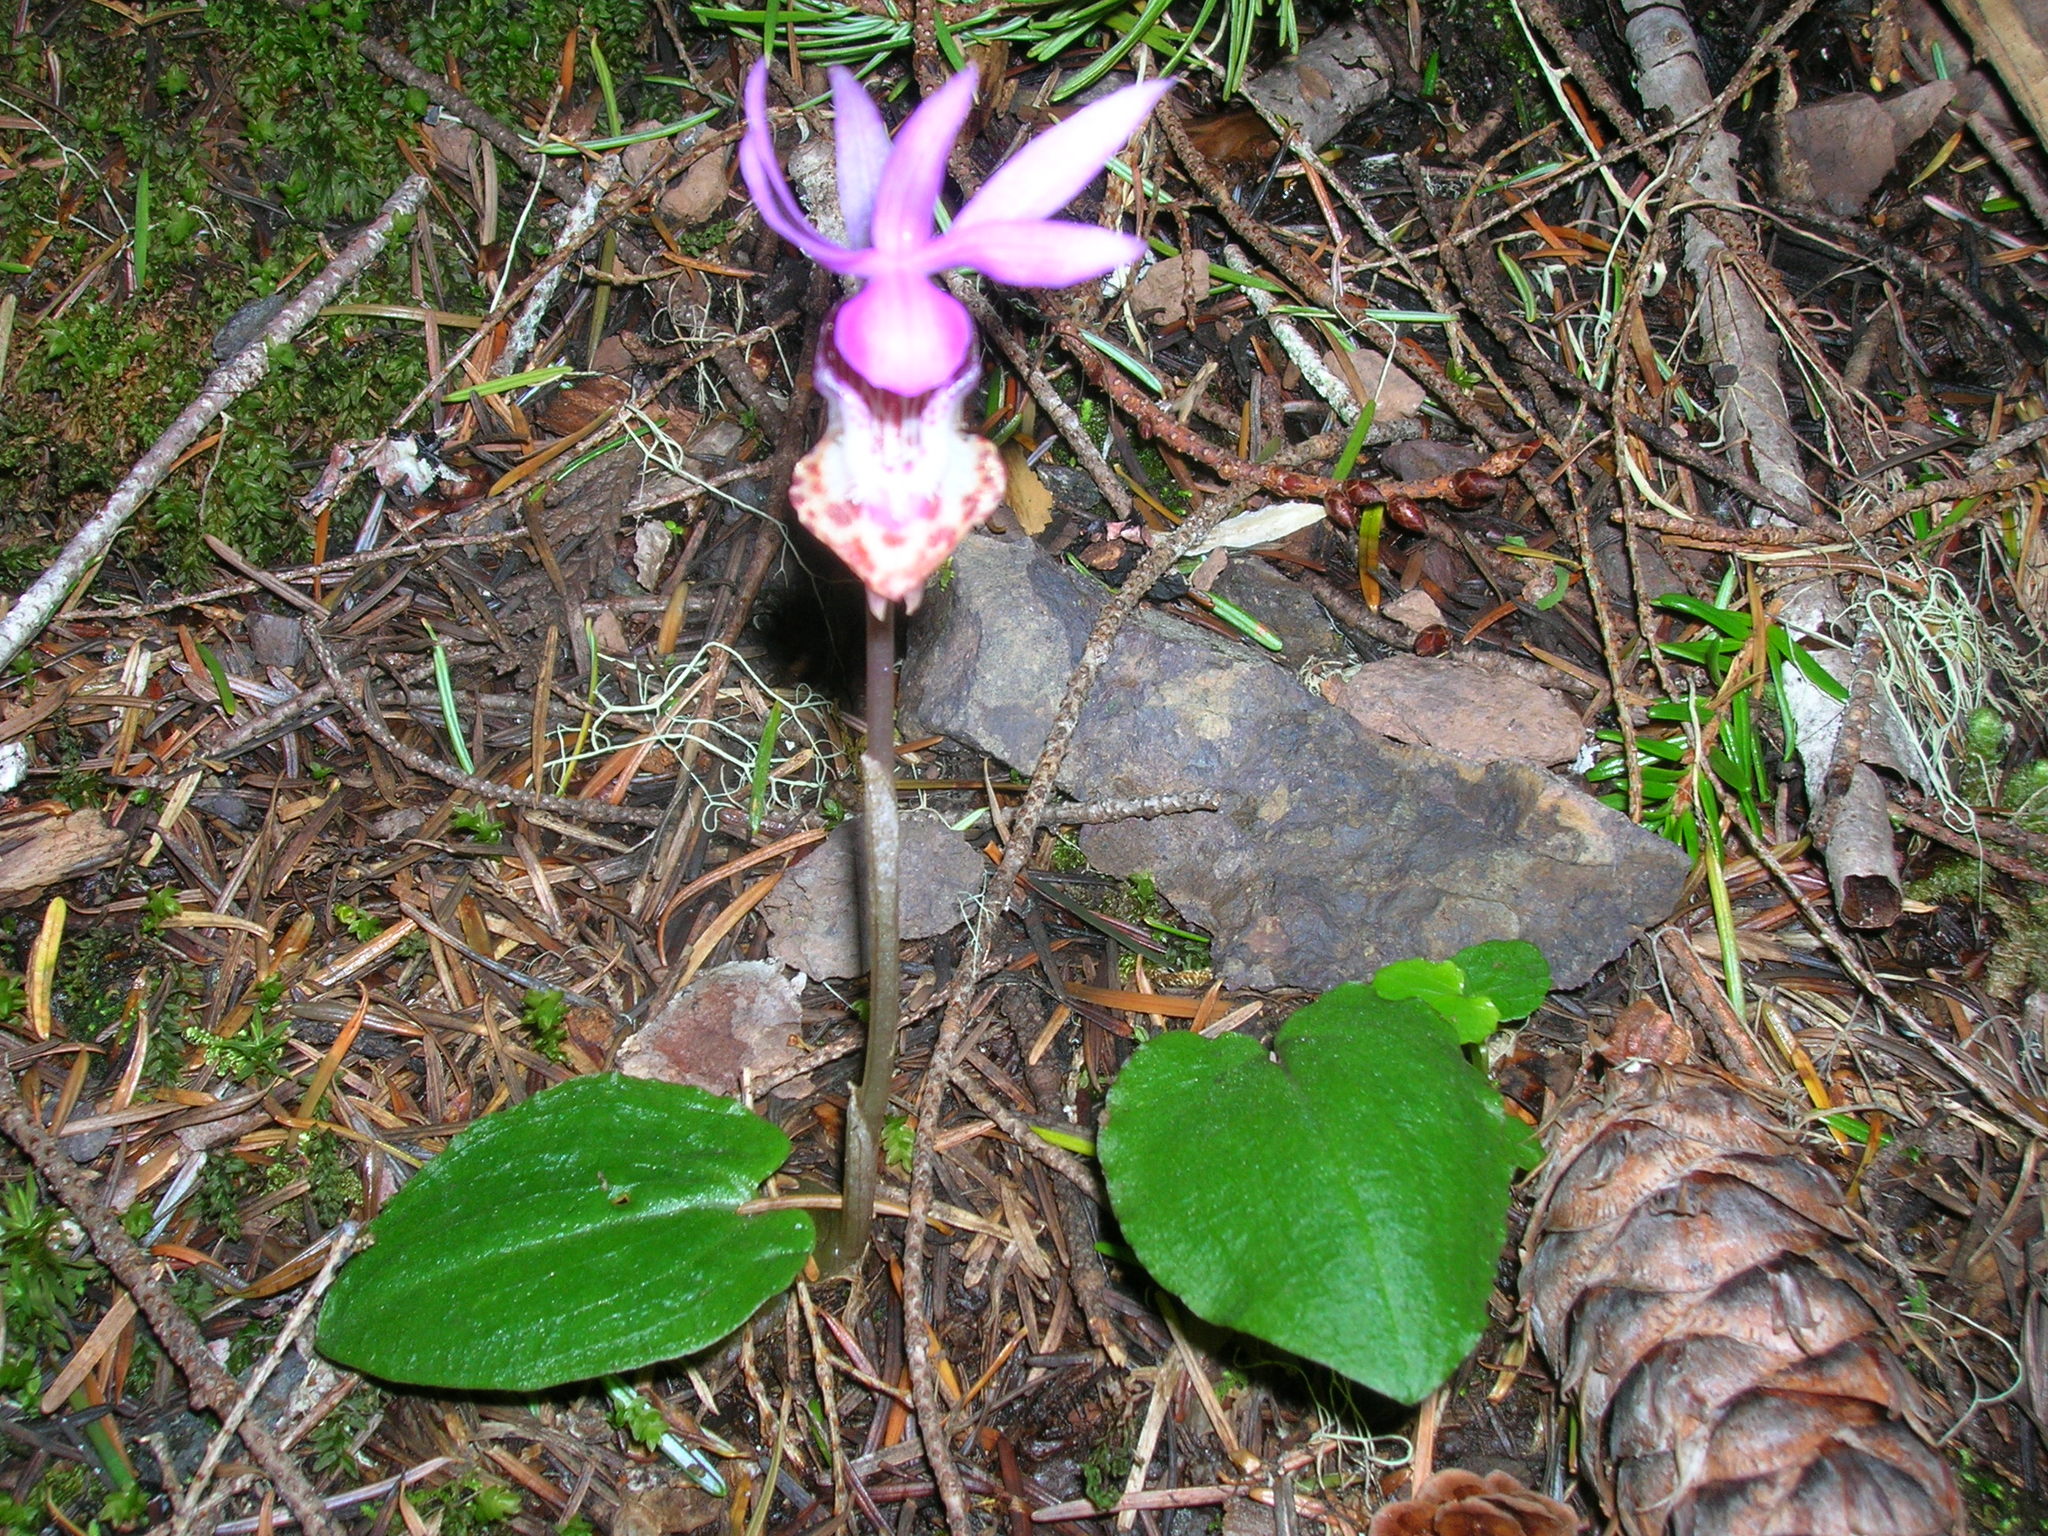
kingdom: Plantae
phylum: Tracheophyta
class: Liliopsida
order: Asparagales
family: Orchidaceae
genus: Calypso
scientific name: Calypso bulbosa
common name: Calypso
